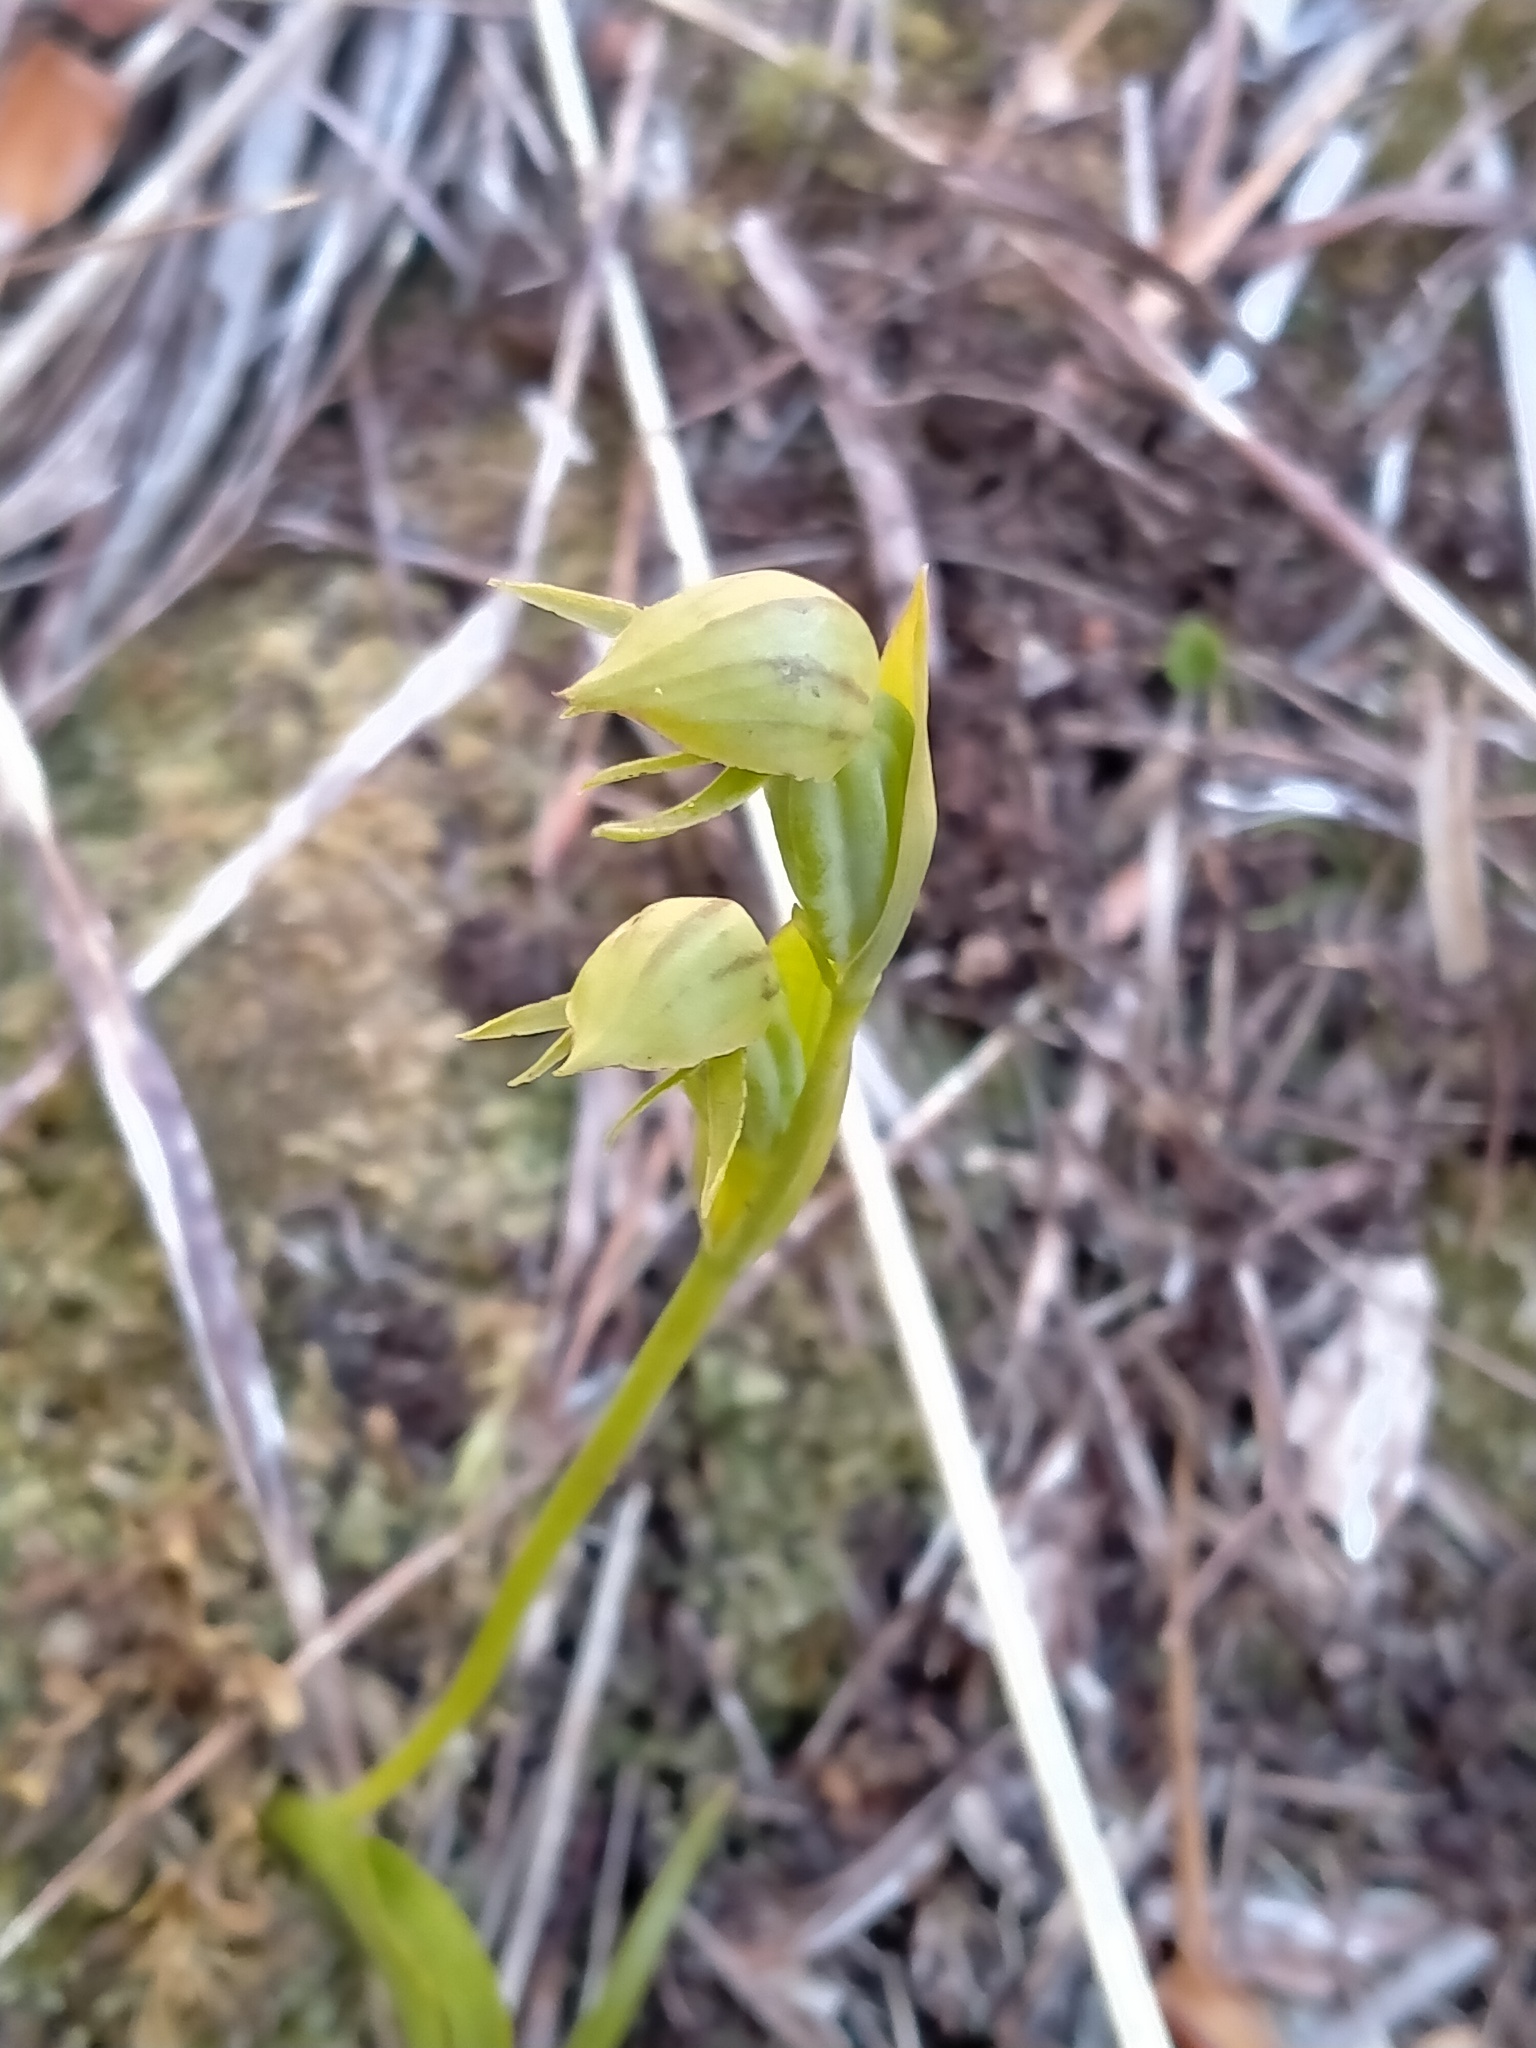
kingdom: Plantae
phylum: Tracheophyta
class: Liliopsida
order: Asparagales
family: Orchidaceae
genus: Waireia
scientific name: Waireia stenopetala
